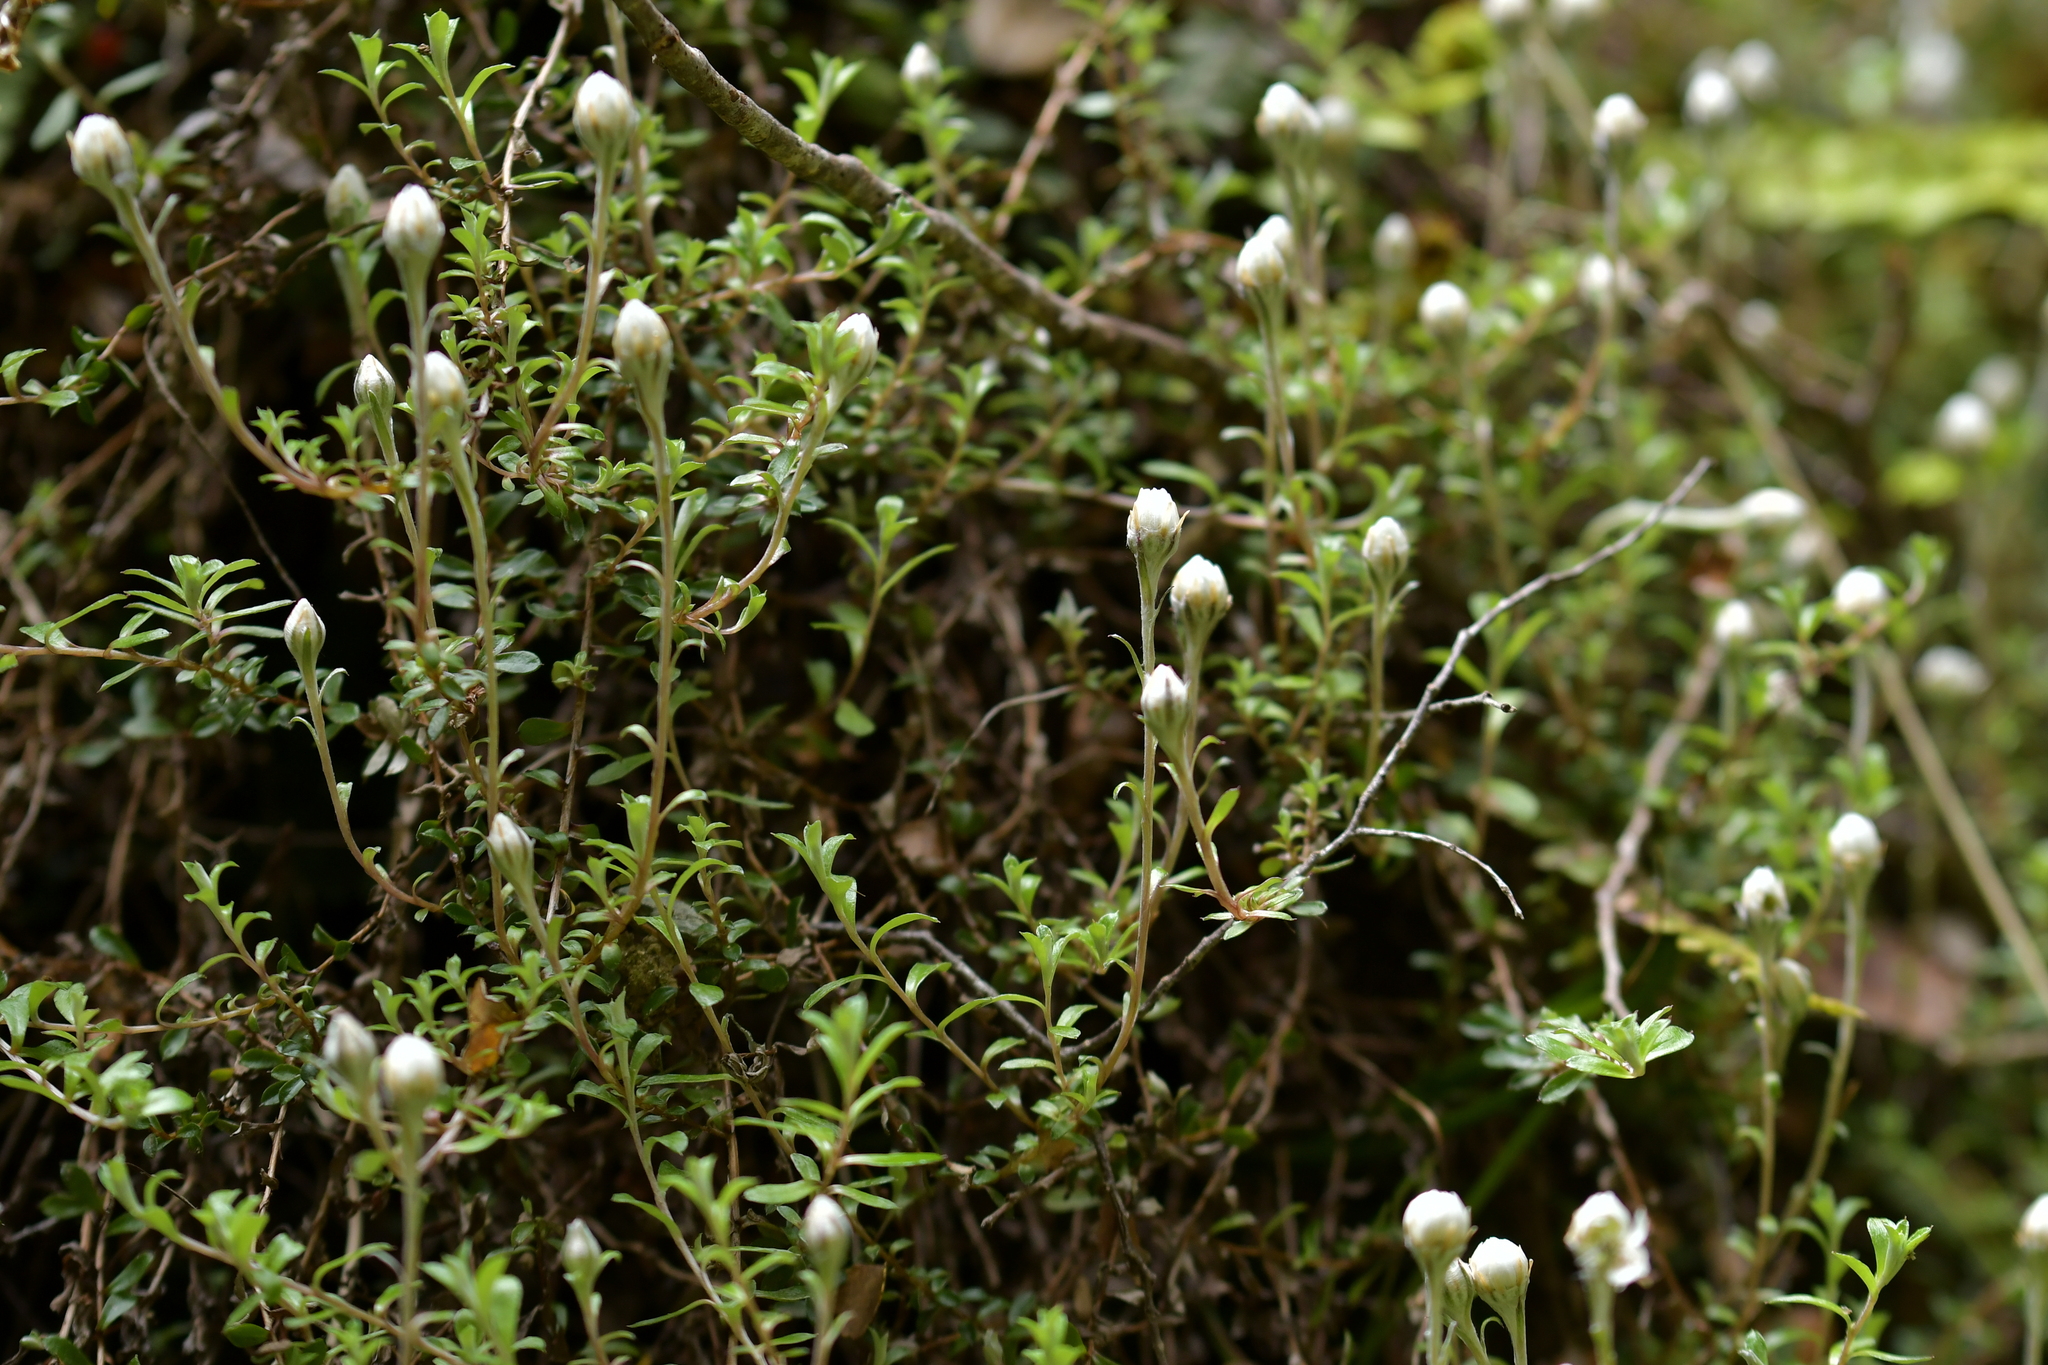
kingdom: Plantae
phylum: Tracheophyta
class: Magnoliopsida
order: Asterales
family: Asteraceae
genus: Anaphalioides
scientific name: Anaphalioides bellidioides
